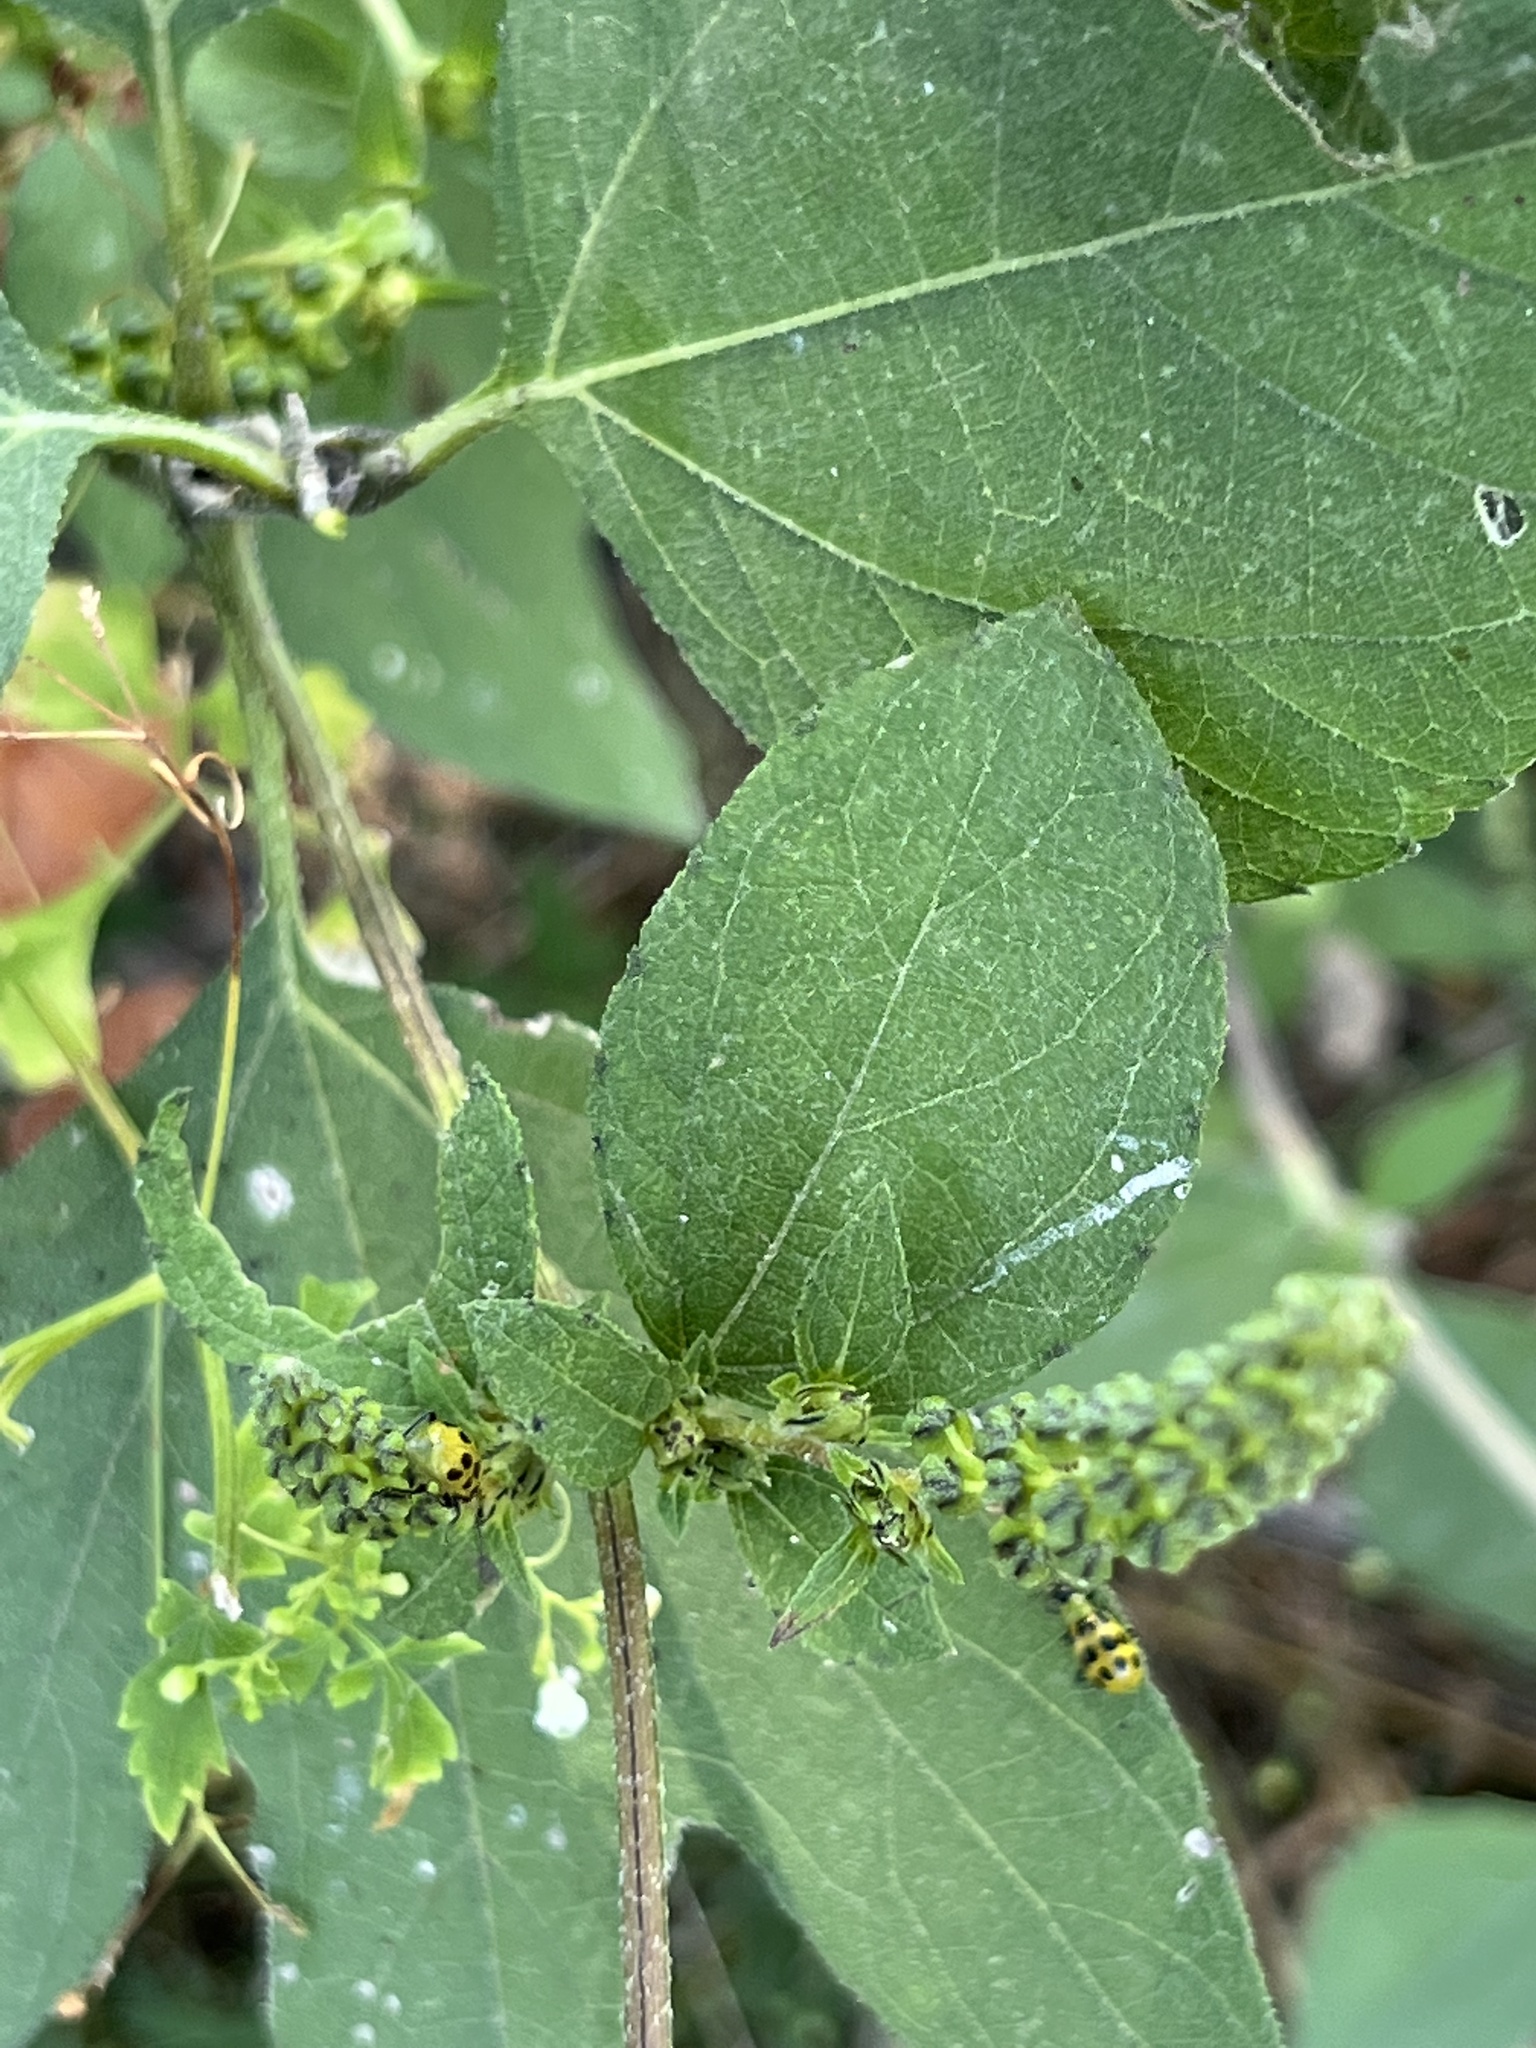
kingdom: Plantae
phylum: Tracheophyta
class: Magnoliopsida
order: Asterales
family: Asteraceae
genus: Ambrosia
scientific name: Ambrosia trifida
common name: Giant ragweed
